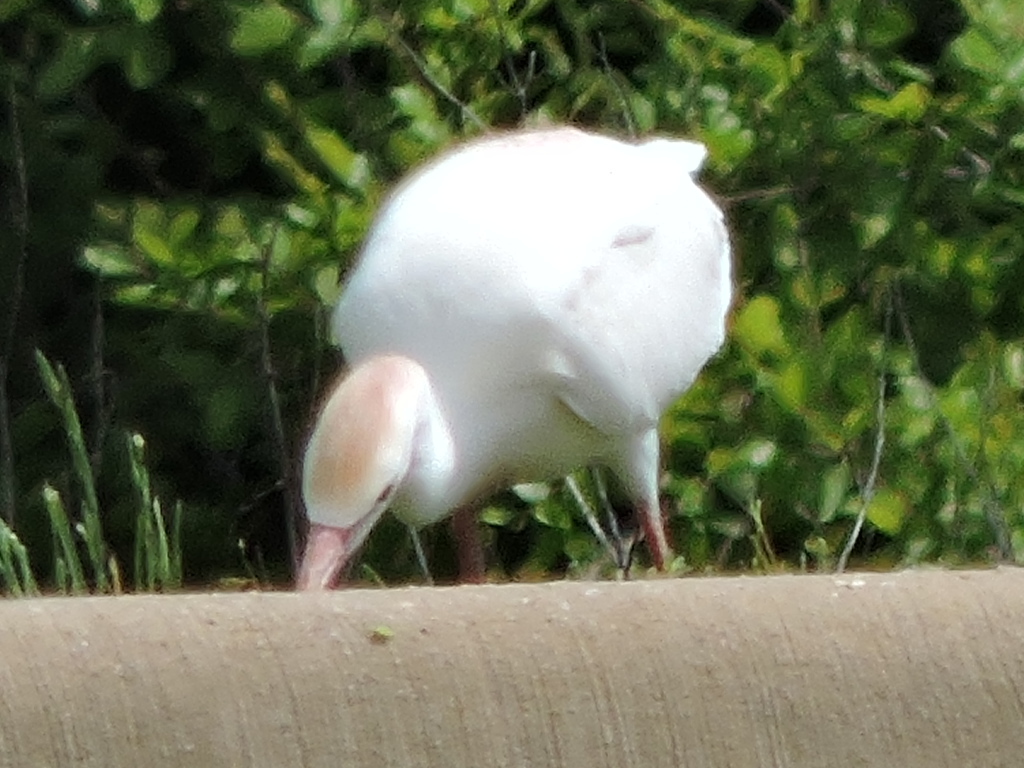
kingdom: Animalia
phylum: Chordata
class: Aves
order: Pelecaniformes
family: Ardeidae
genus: Bubulcus
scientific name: Bubulcus ibis
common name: Cattle egret
